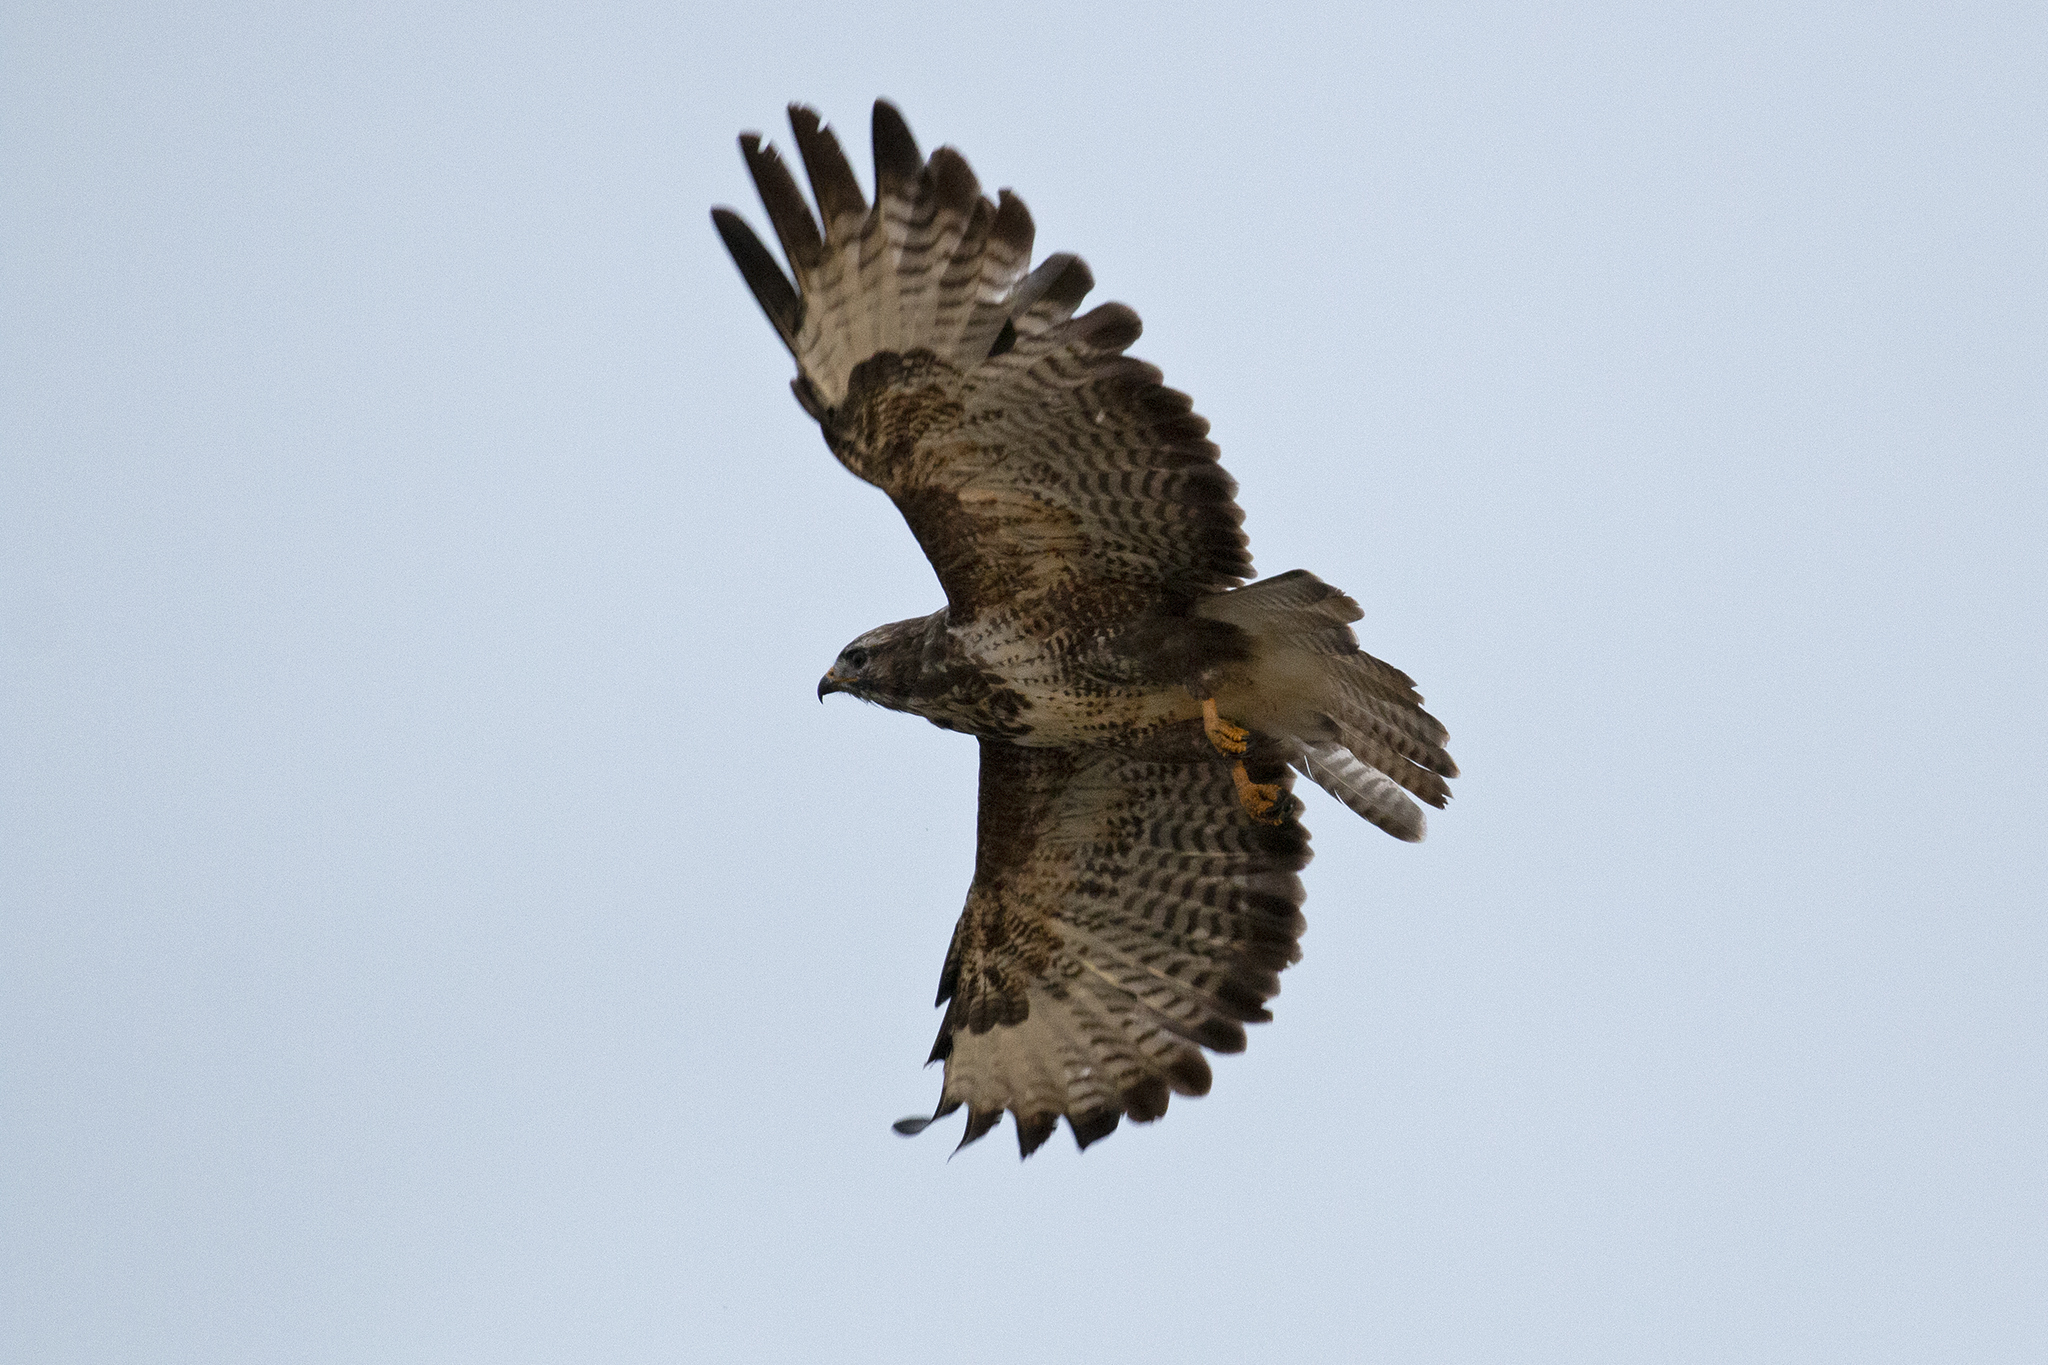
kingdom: Animalia
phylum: Chordata
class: Aves
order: Accipitriformes
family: Accipitridae
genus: Buteo
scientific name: Buteo buteo
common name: Common buzzard
